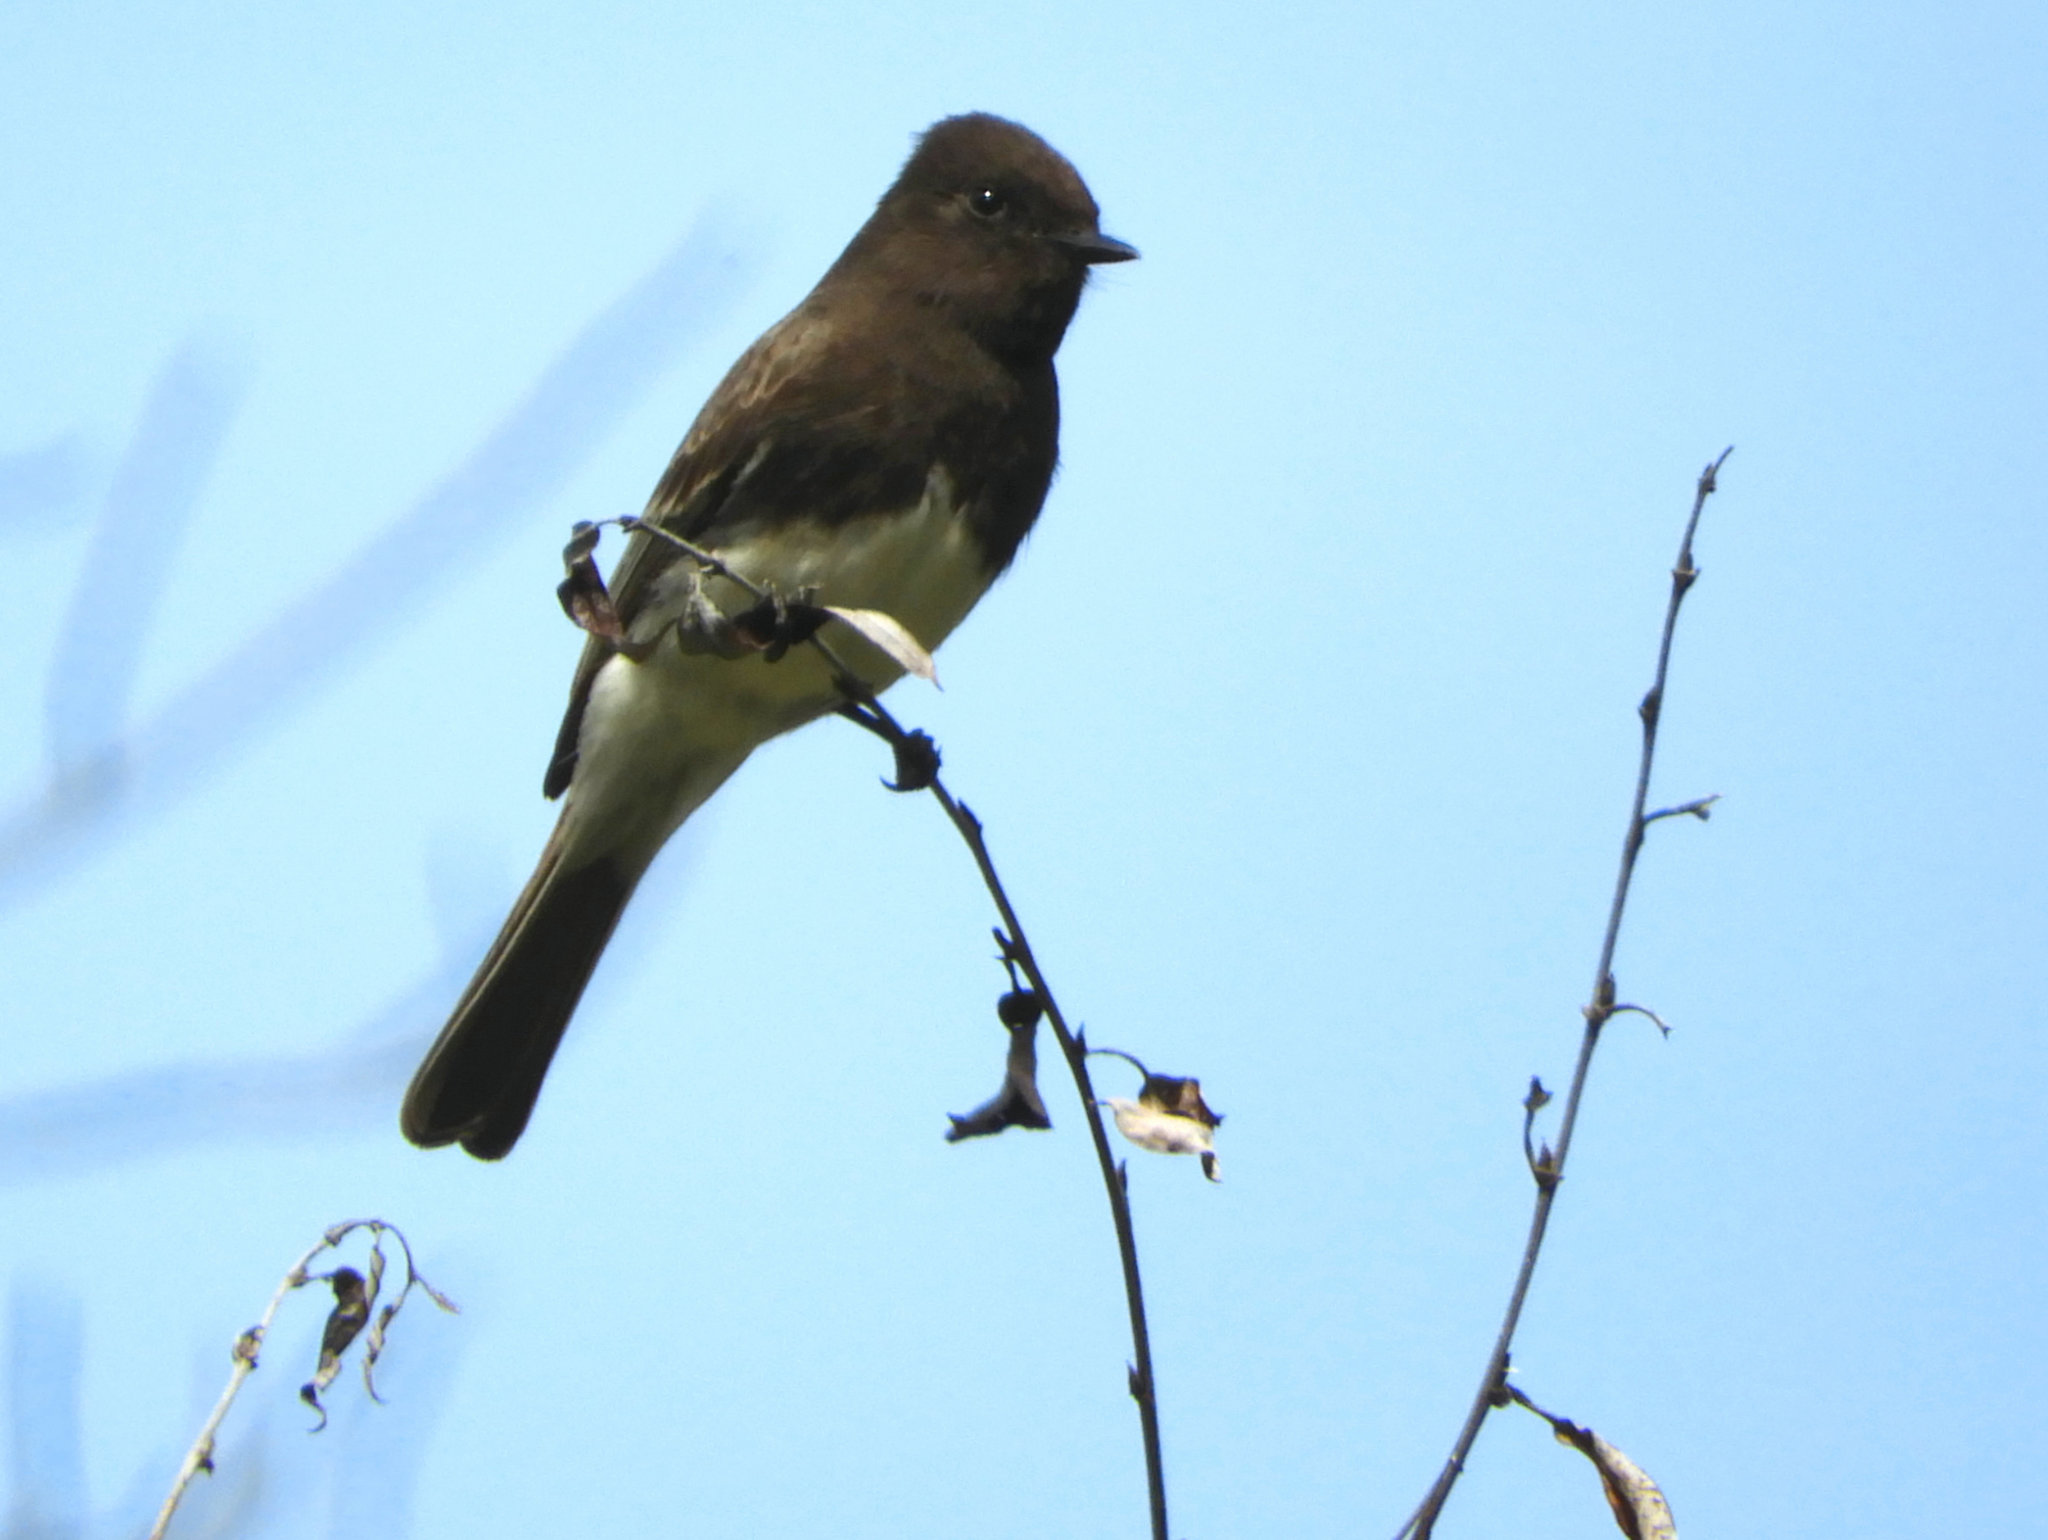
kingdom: Animalia
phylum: Chordata
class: Aves
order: Passeriformes
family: Tyrannidae
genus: Sayornis
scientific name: Sayornis nigricans
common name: Black phoebe
